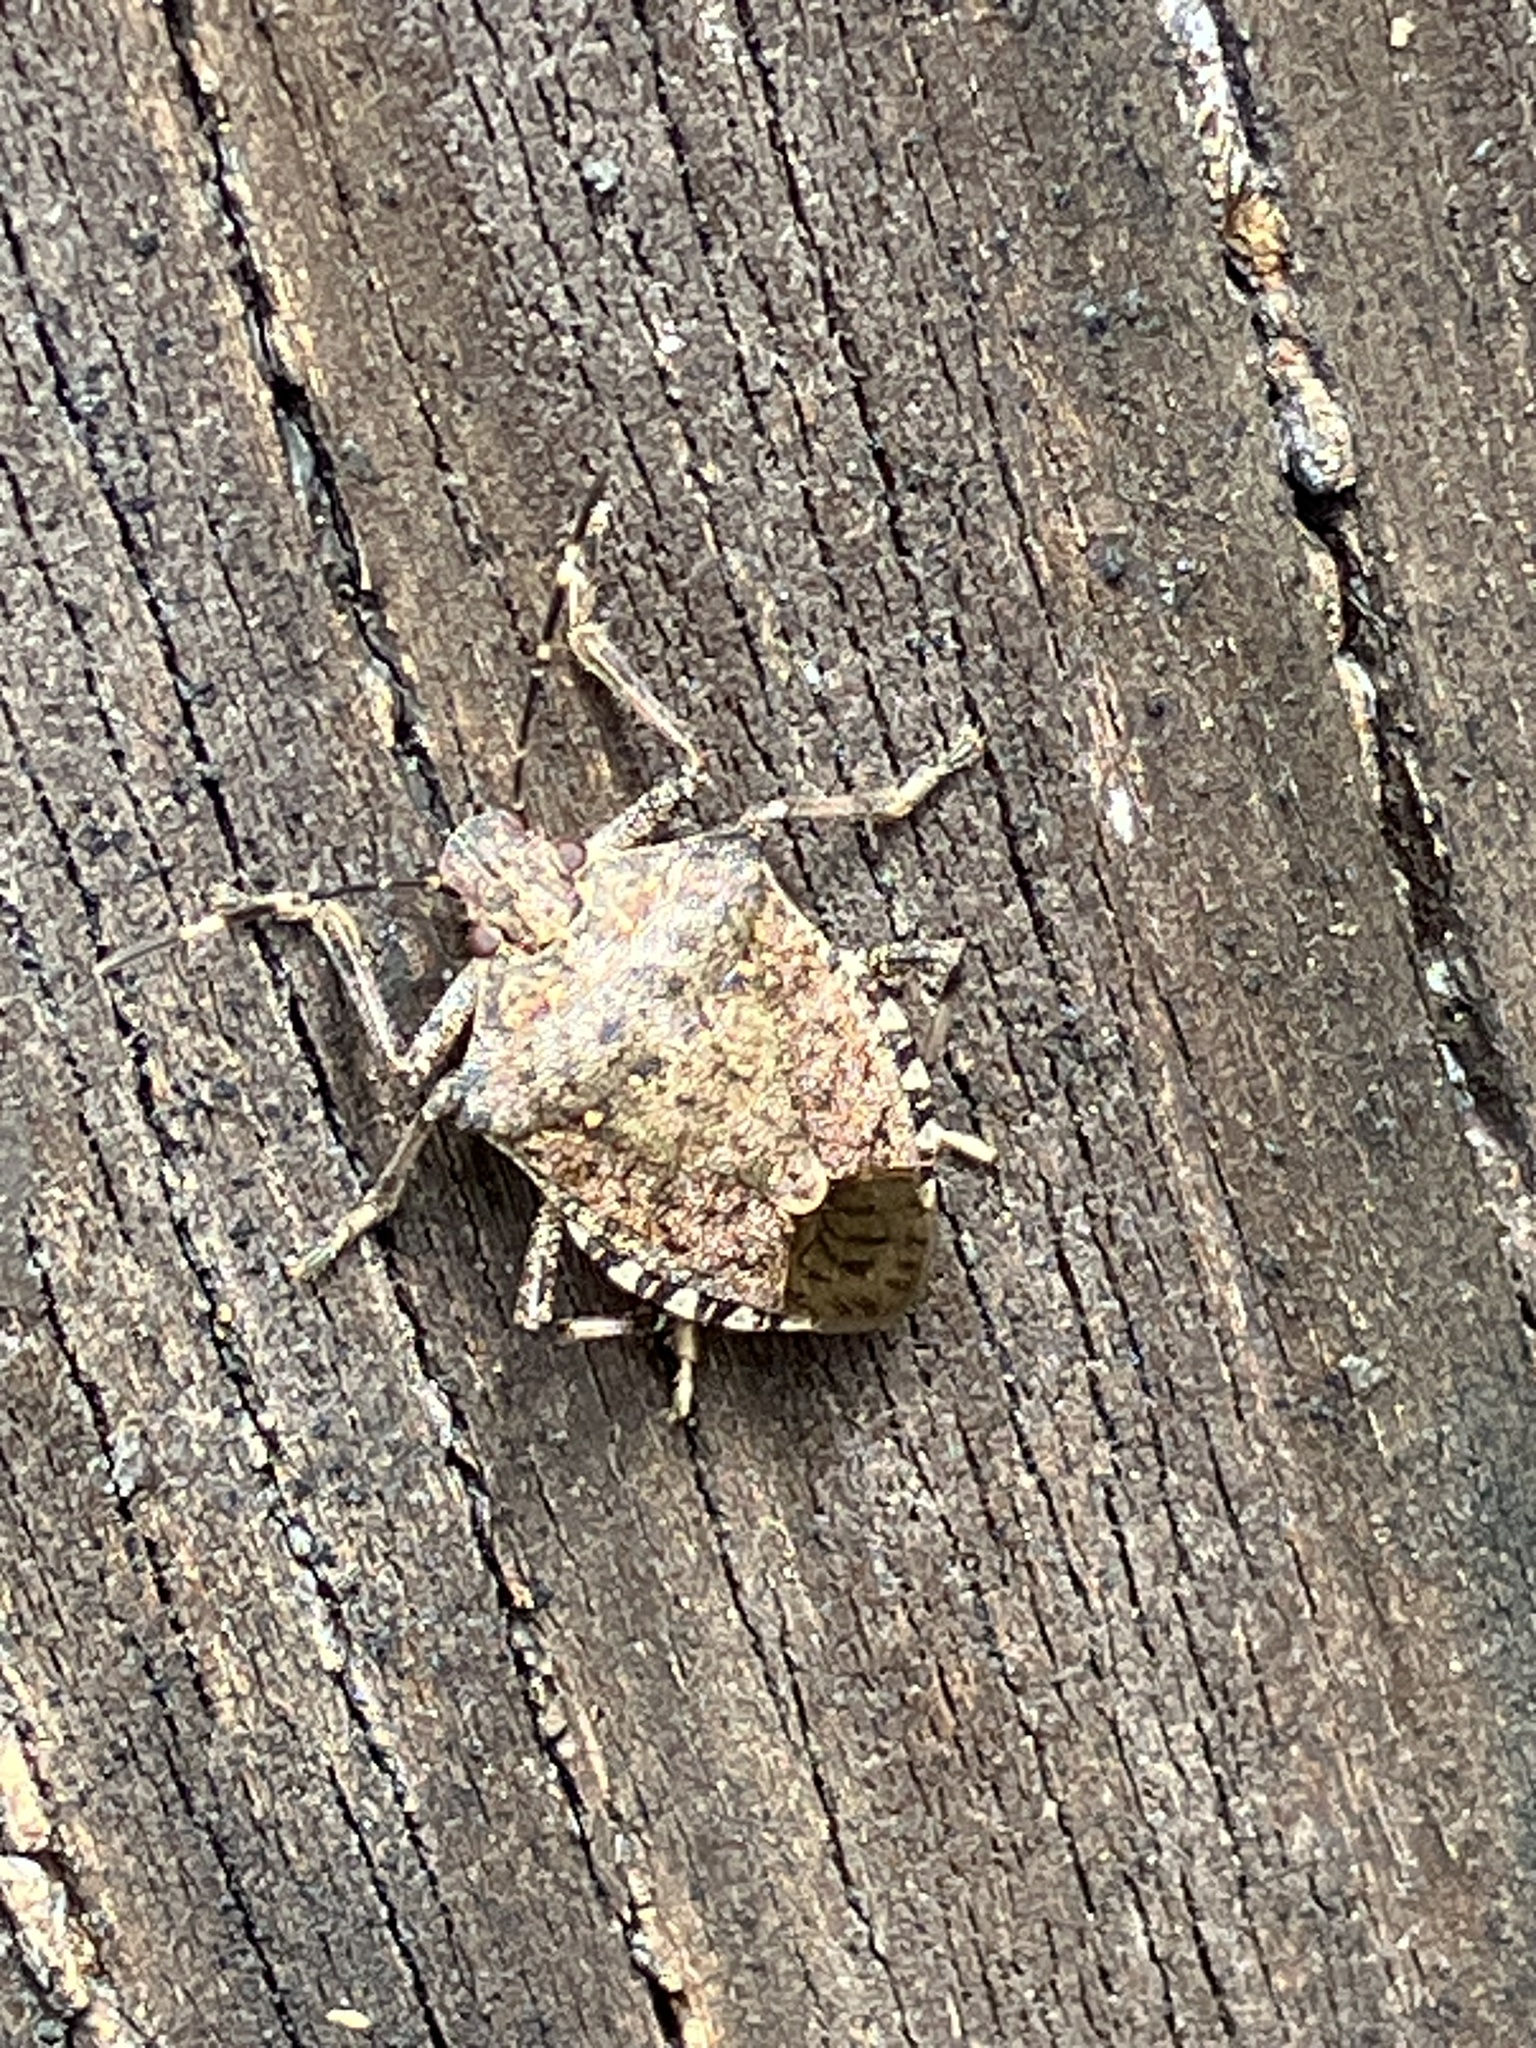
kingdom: Animalia
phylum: Arthropoda
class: Insecta
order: Hemiptera
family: Pentatomidae
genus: Halyomorpha
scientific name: Halyomorpha halys
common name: Brown marmorated stink bug
